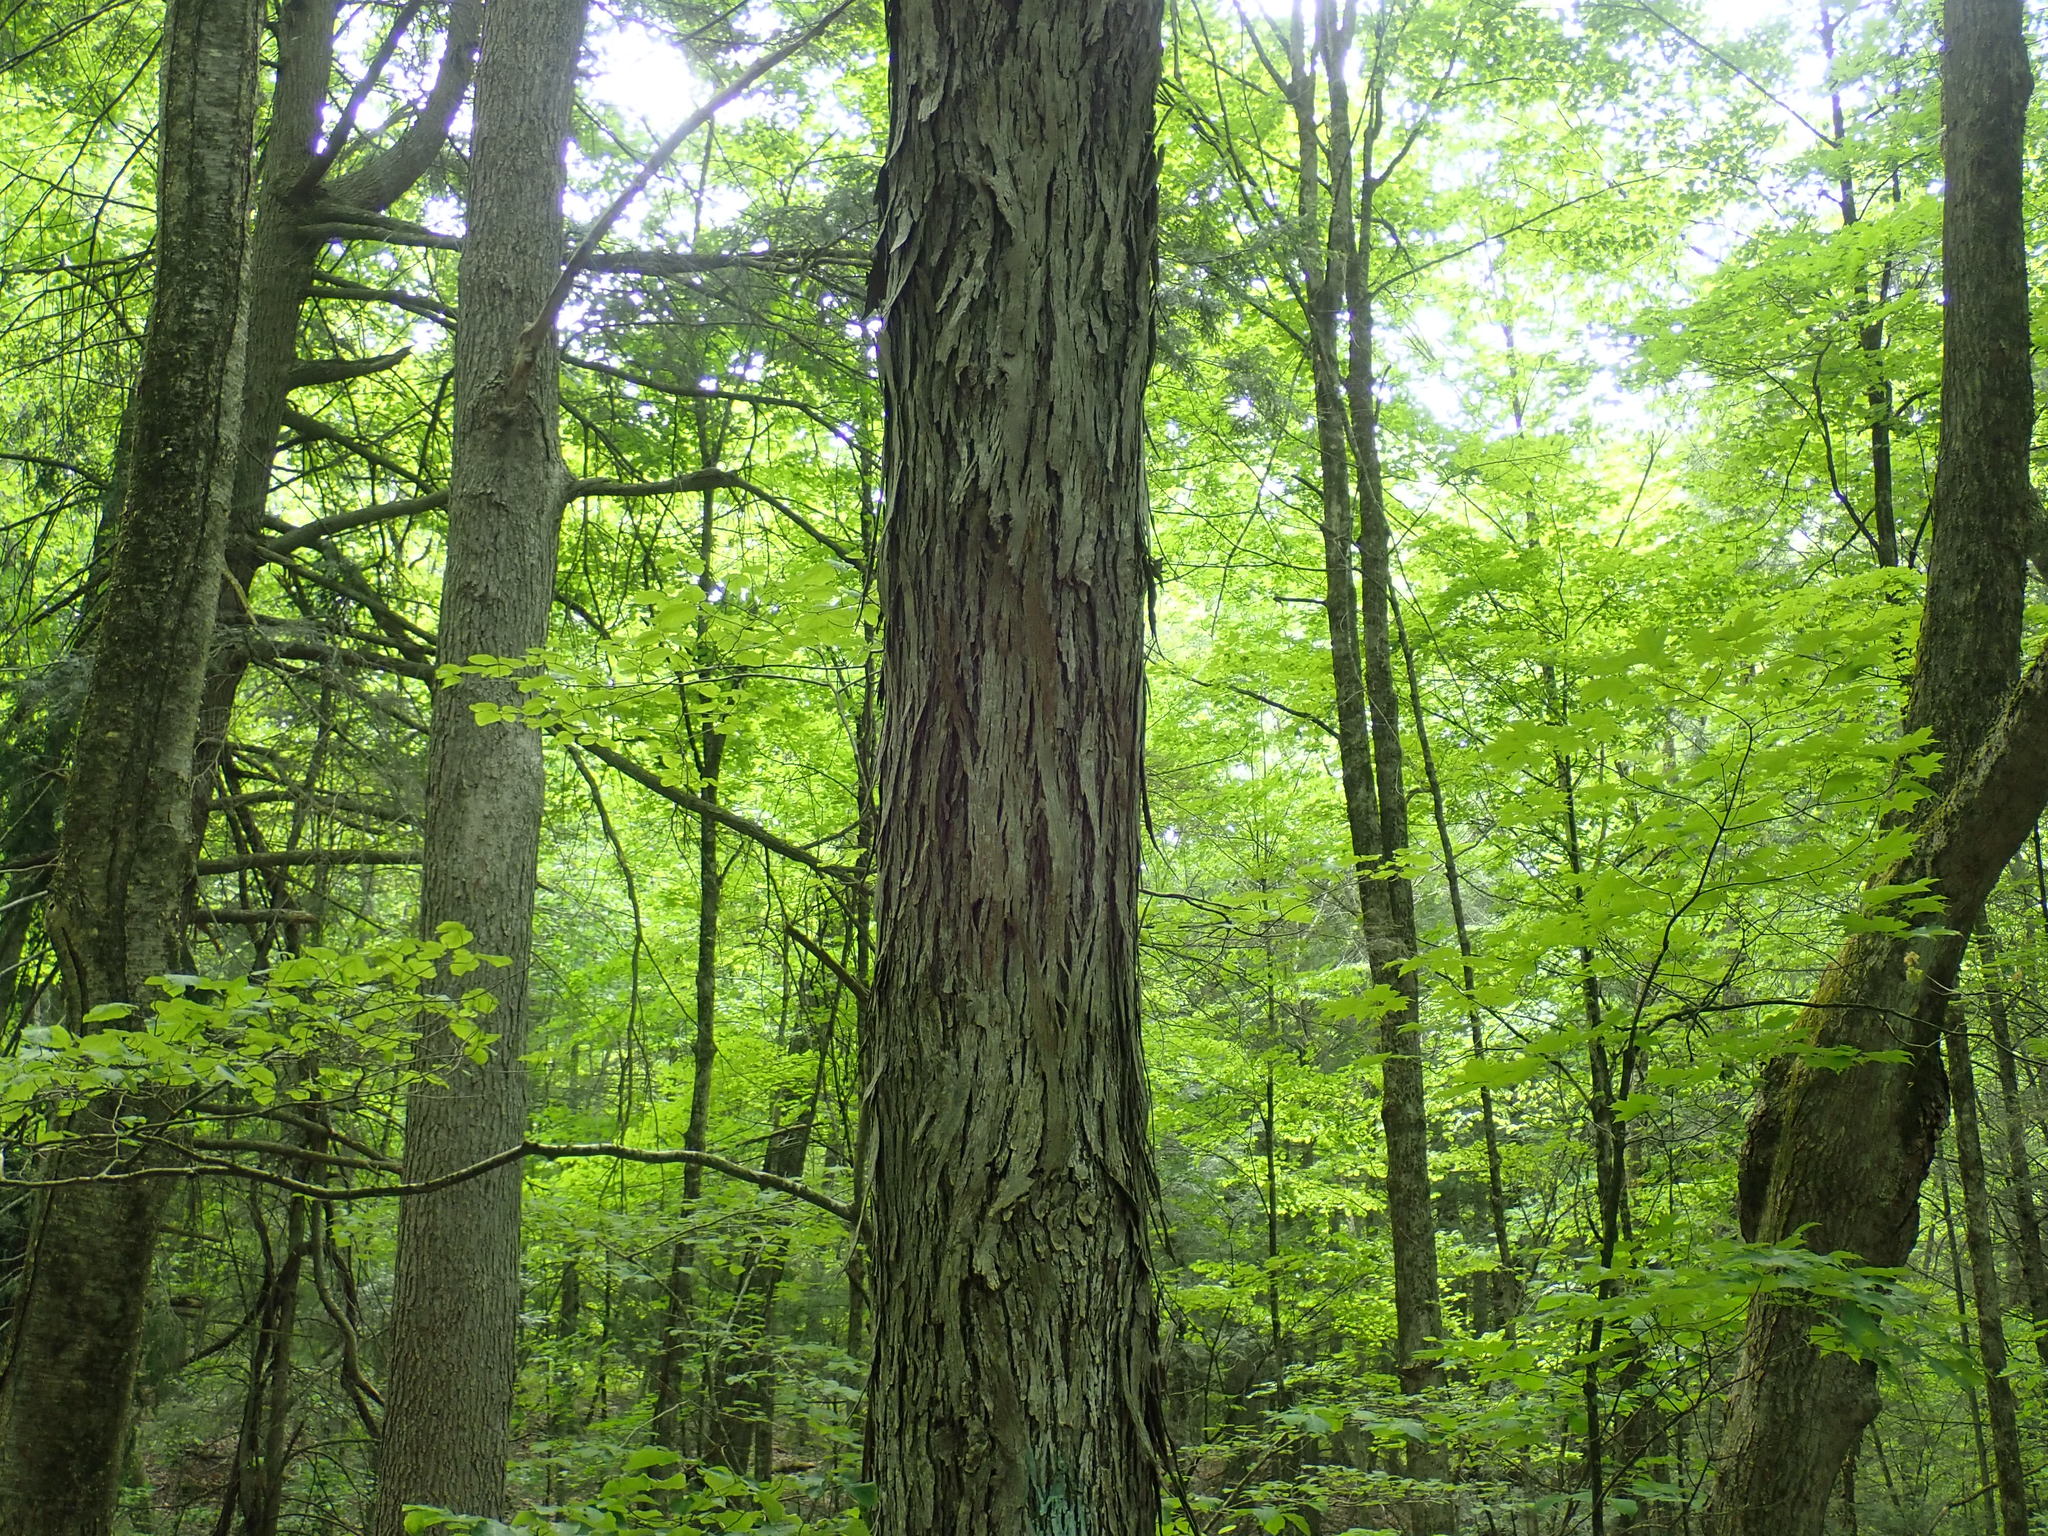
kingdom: Plantae
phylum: Tracheophyta
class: Magnoliopsida
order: Fagales
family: Juglandaceae
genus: Carya
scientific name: Carya ovata
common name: Shagbark hickory
